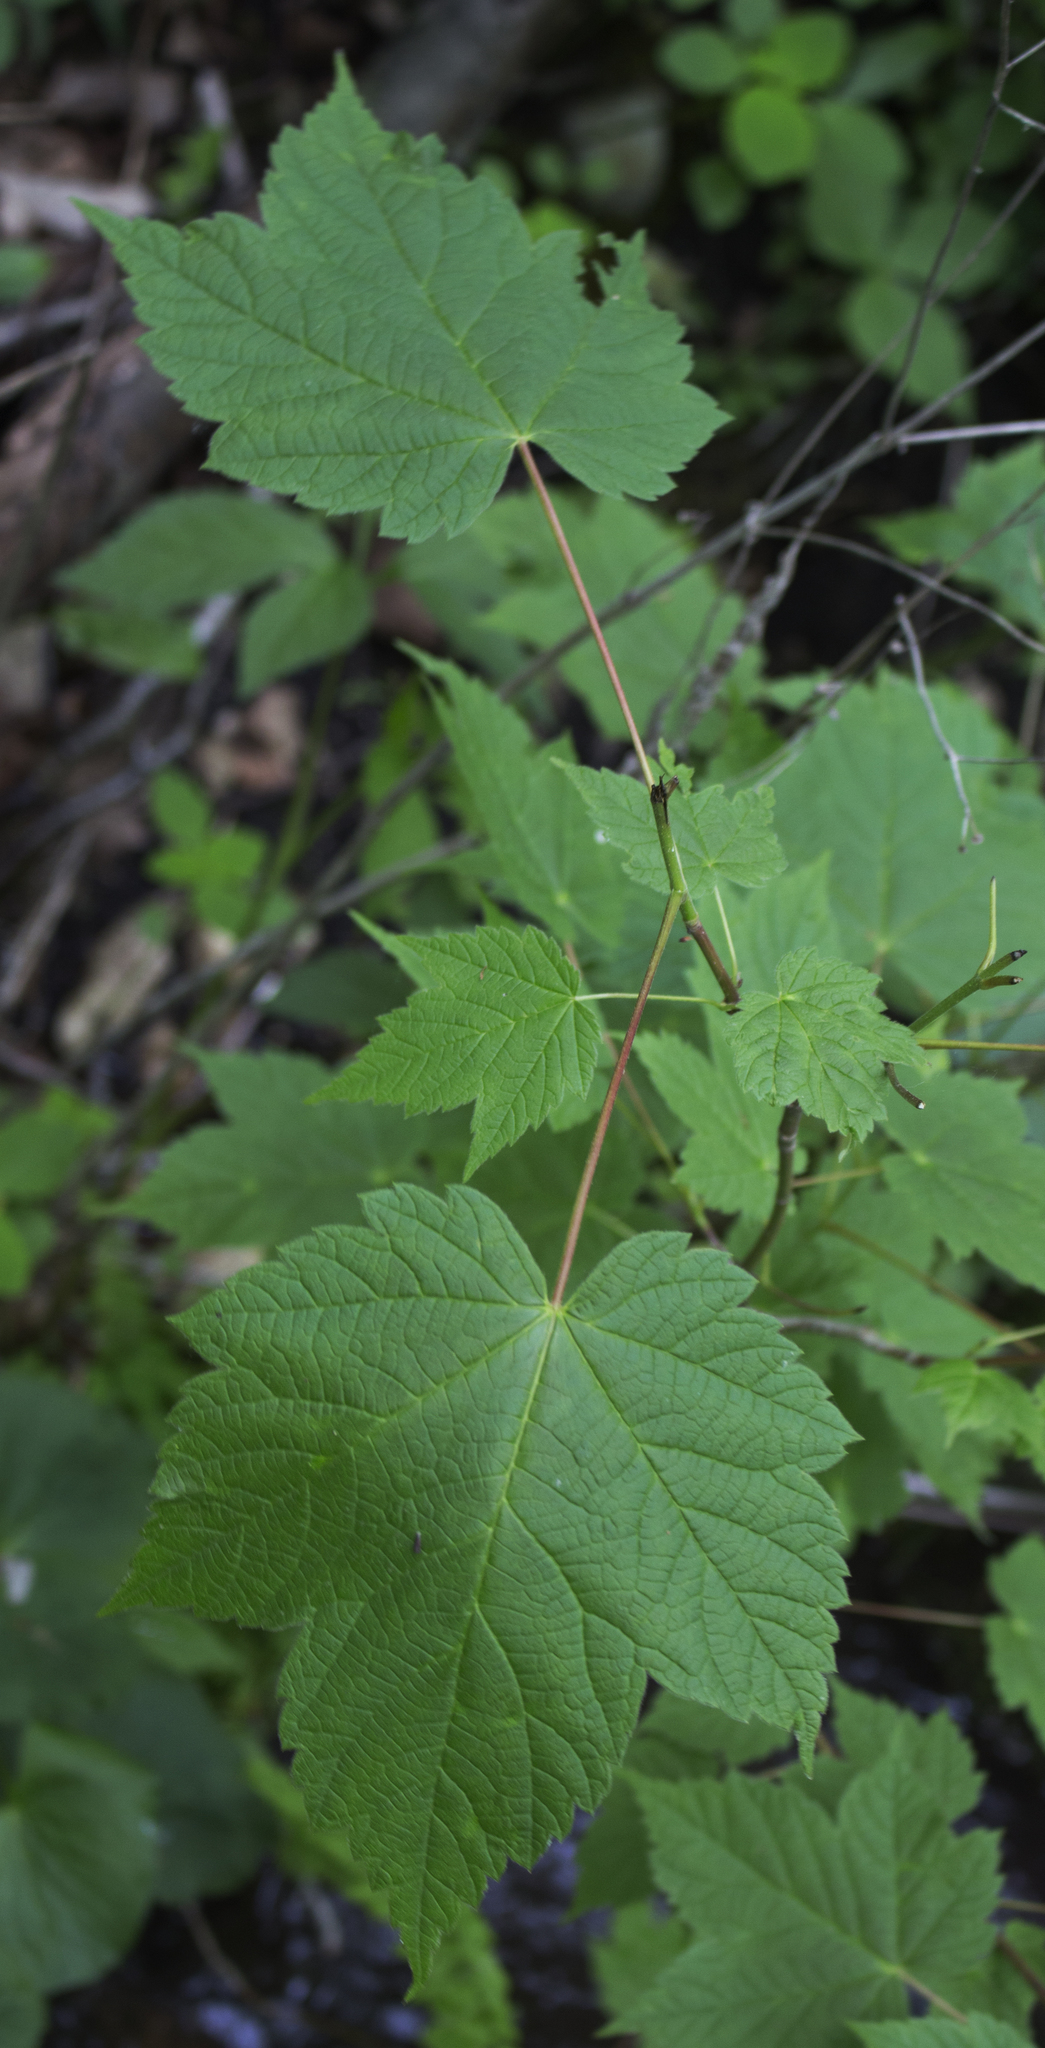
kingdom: Plantae
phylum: Tracheophyta
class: Magnoliopsida
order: Sapindales
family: Sapindaceae
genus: Acer
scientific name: Acer spicatum
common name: Mountain maple
